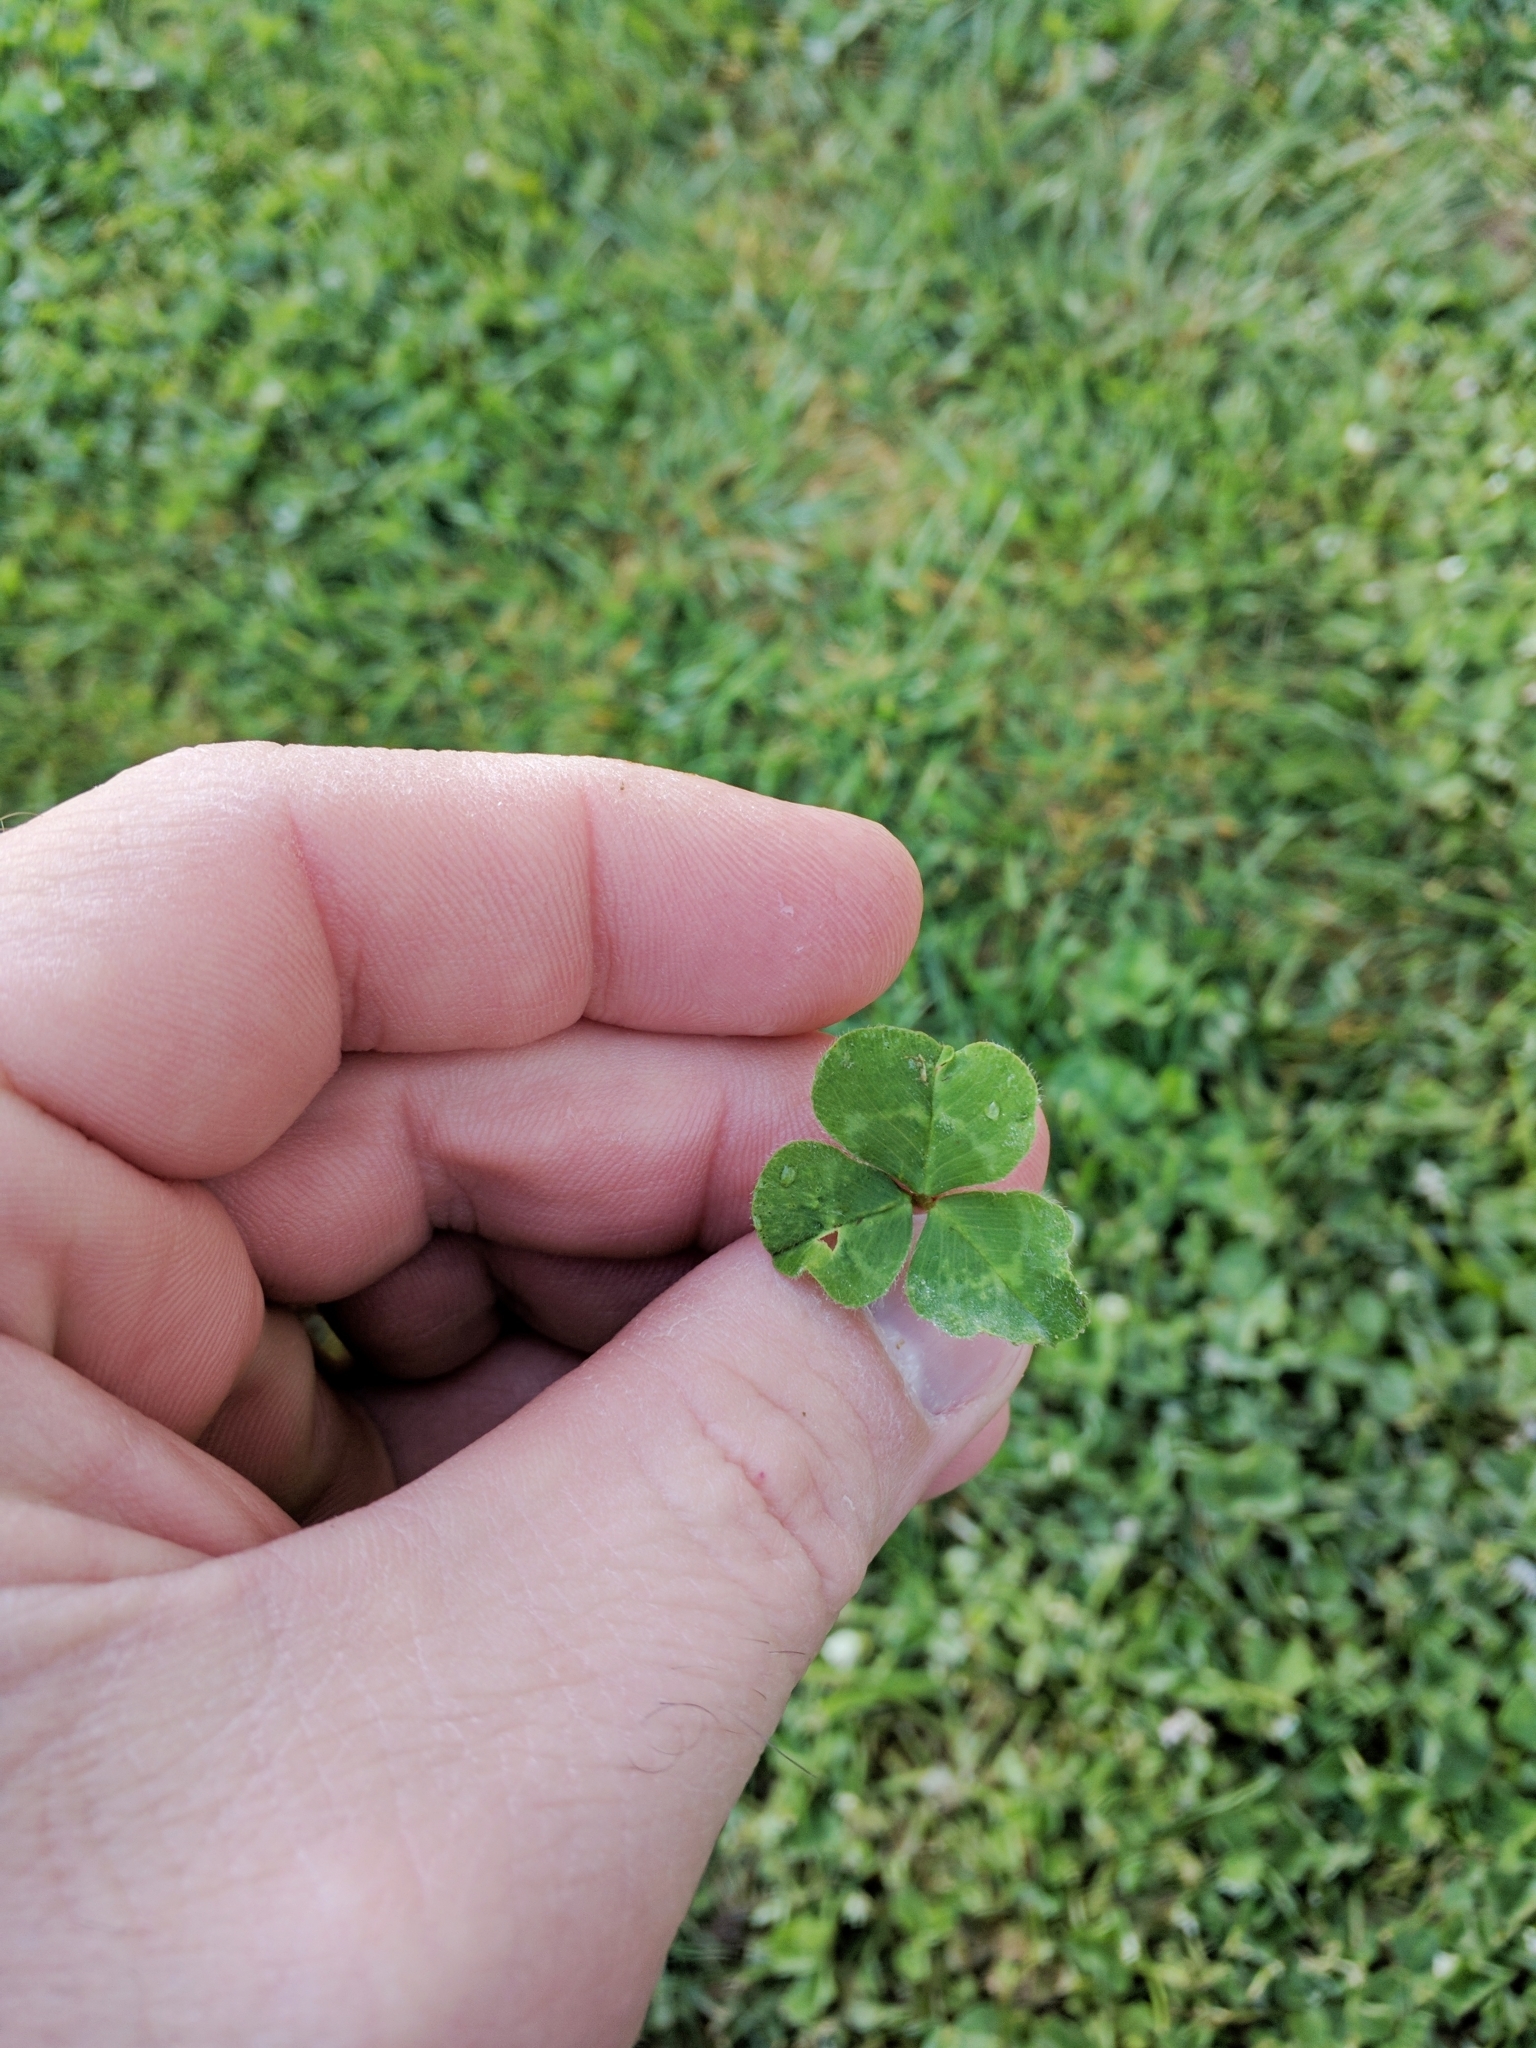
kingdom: Plantae
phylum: Tracheophyta
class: Magnoliopsida
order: Fabales
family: Fabaceae
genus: Trifolium
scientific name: Trifolium subterraneum
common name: Subterranean clover
